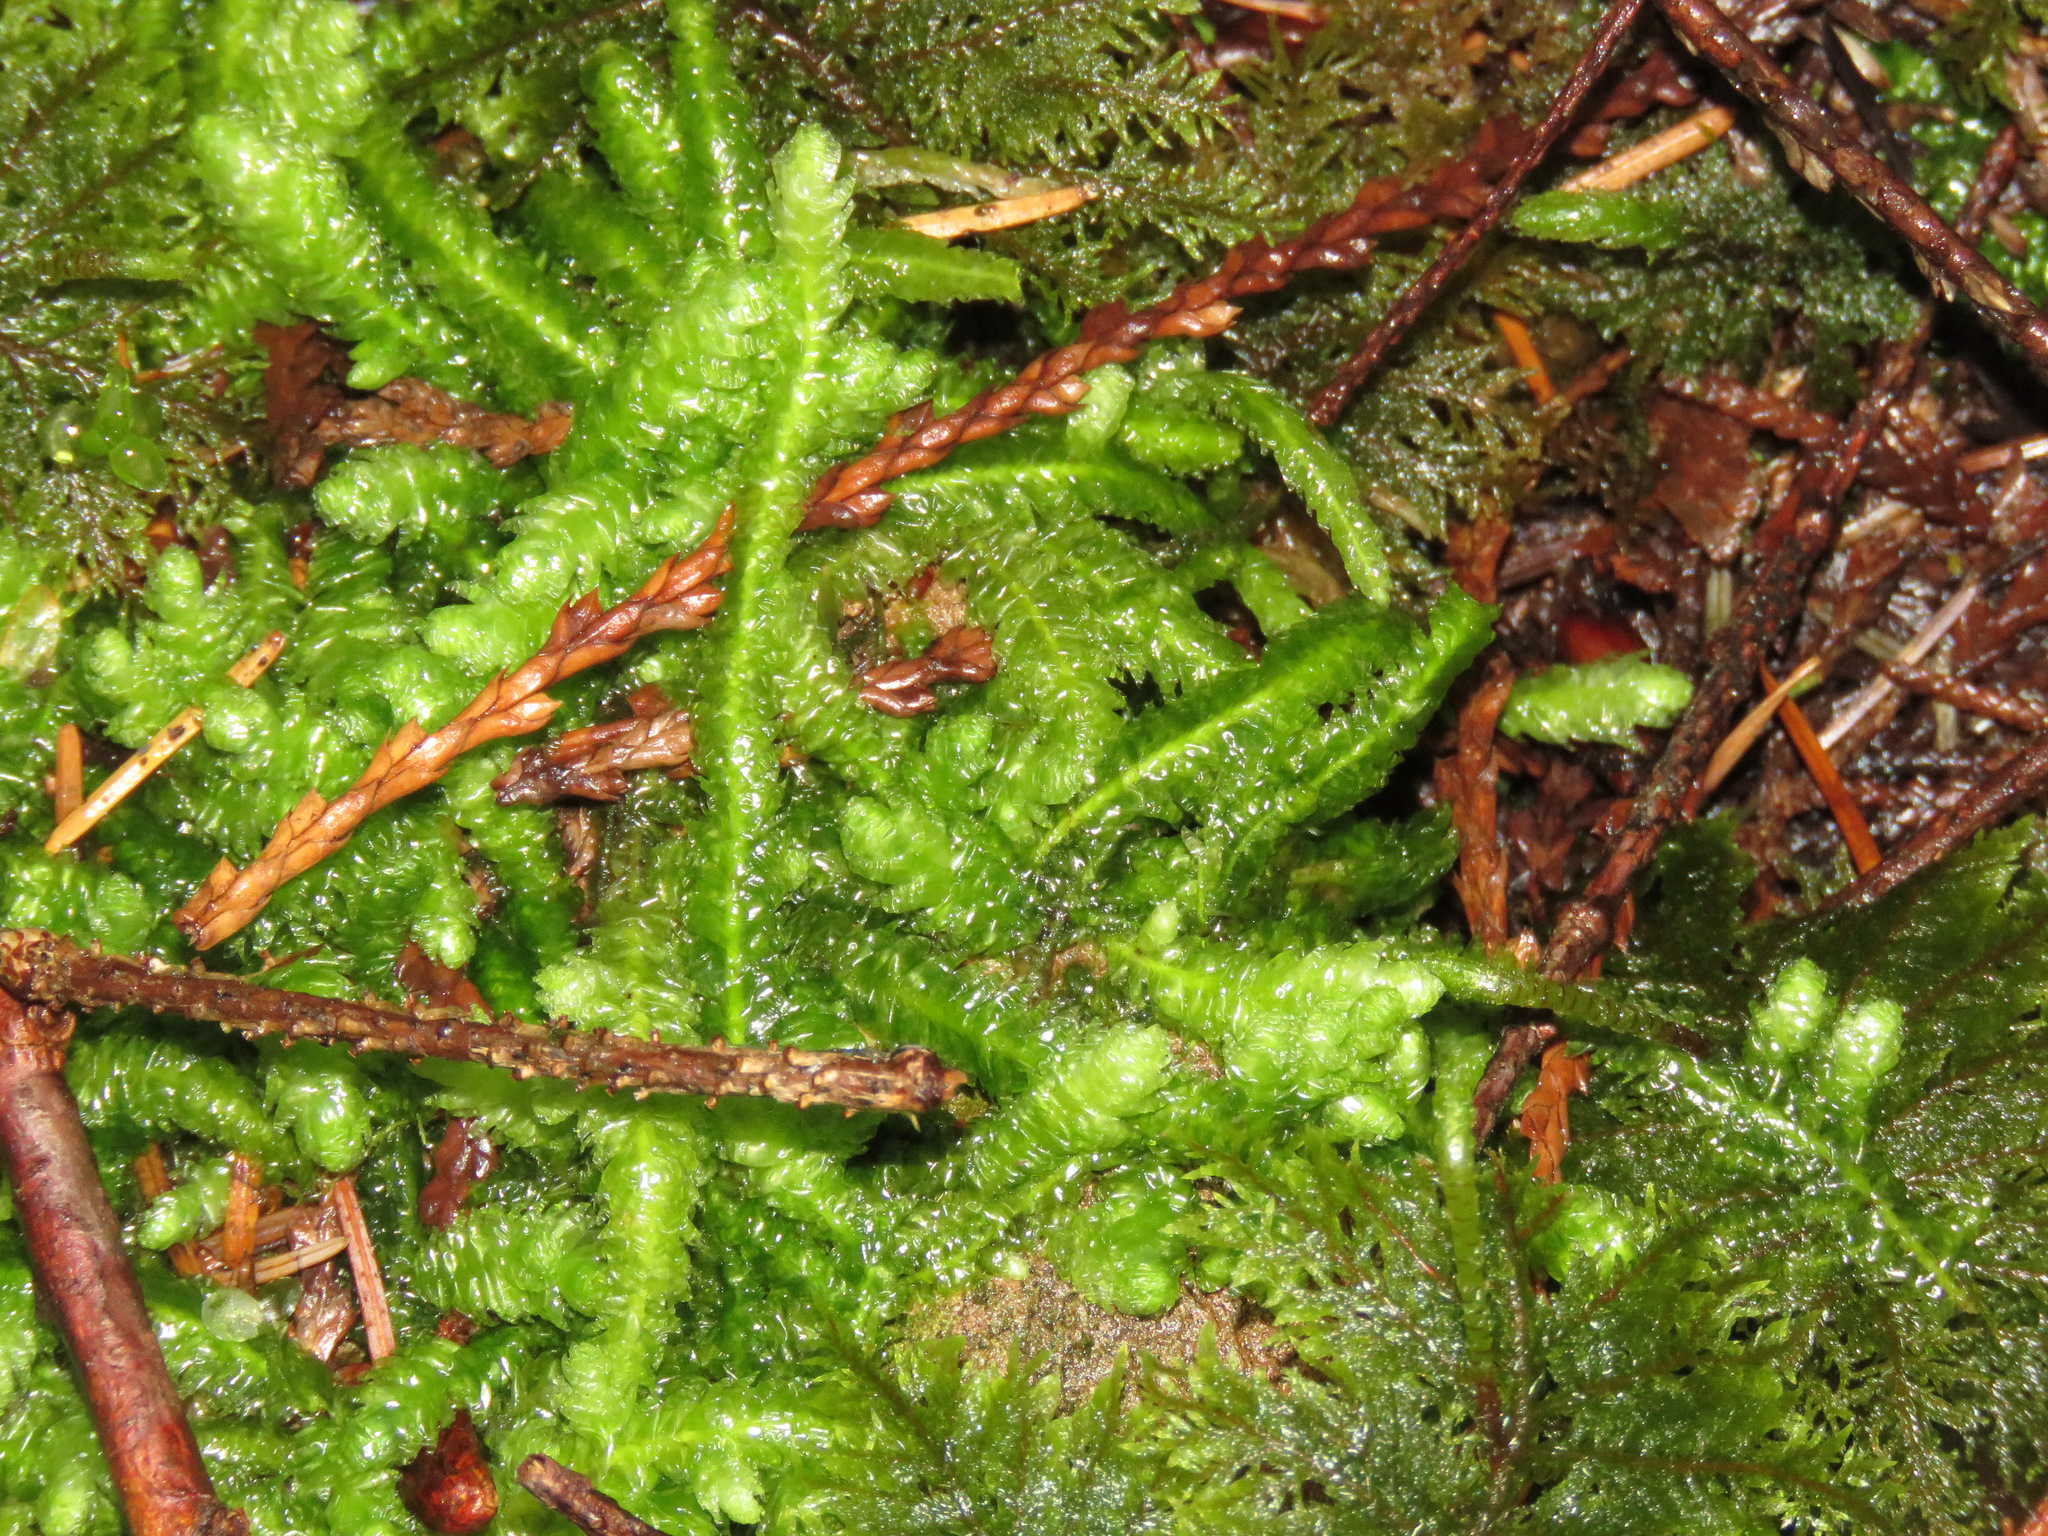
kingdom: Plantae
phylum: Bryophyta
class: Bryopsida
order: Hypnales
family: Plagiotheciaceae
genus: Plagiothecium
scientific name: Plagiothecium undulatum
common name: Waved silk-moss
